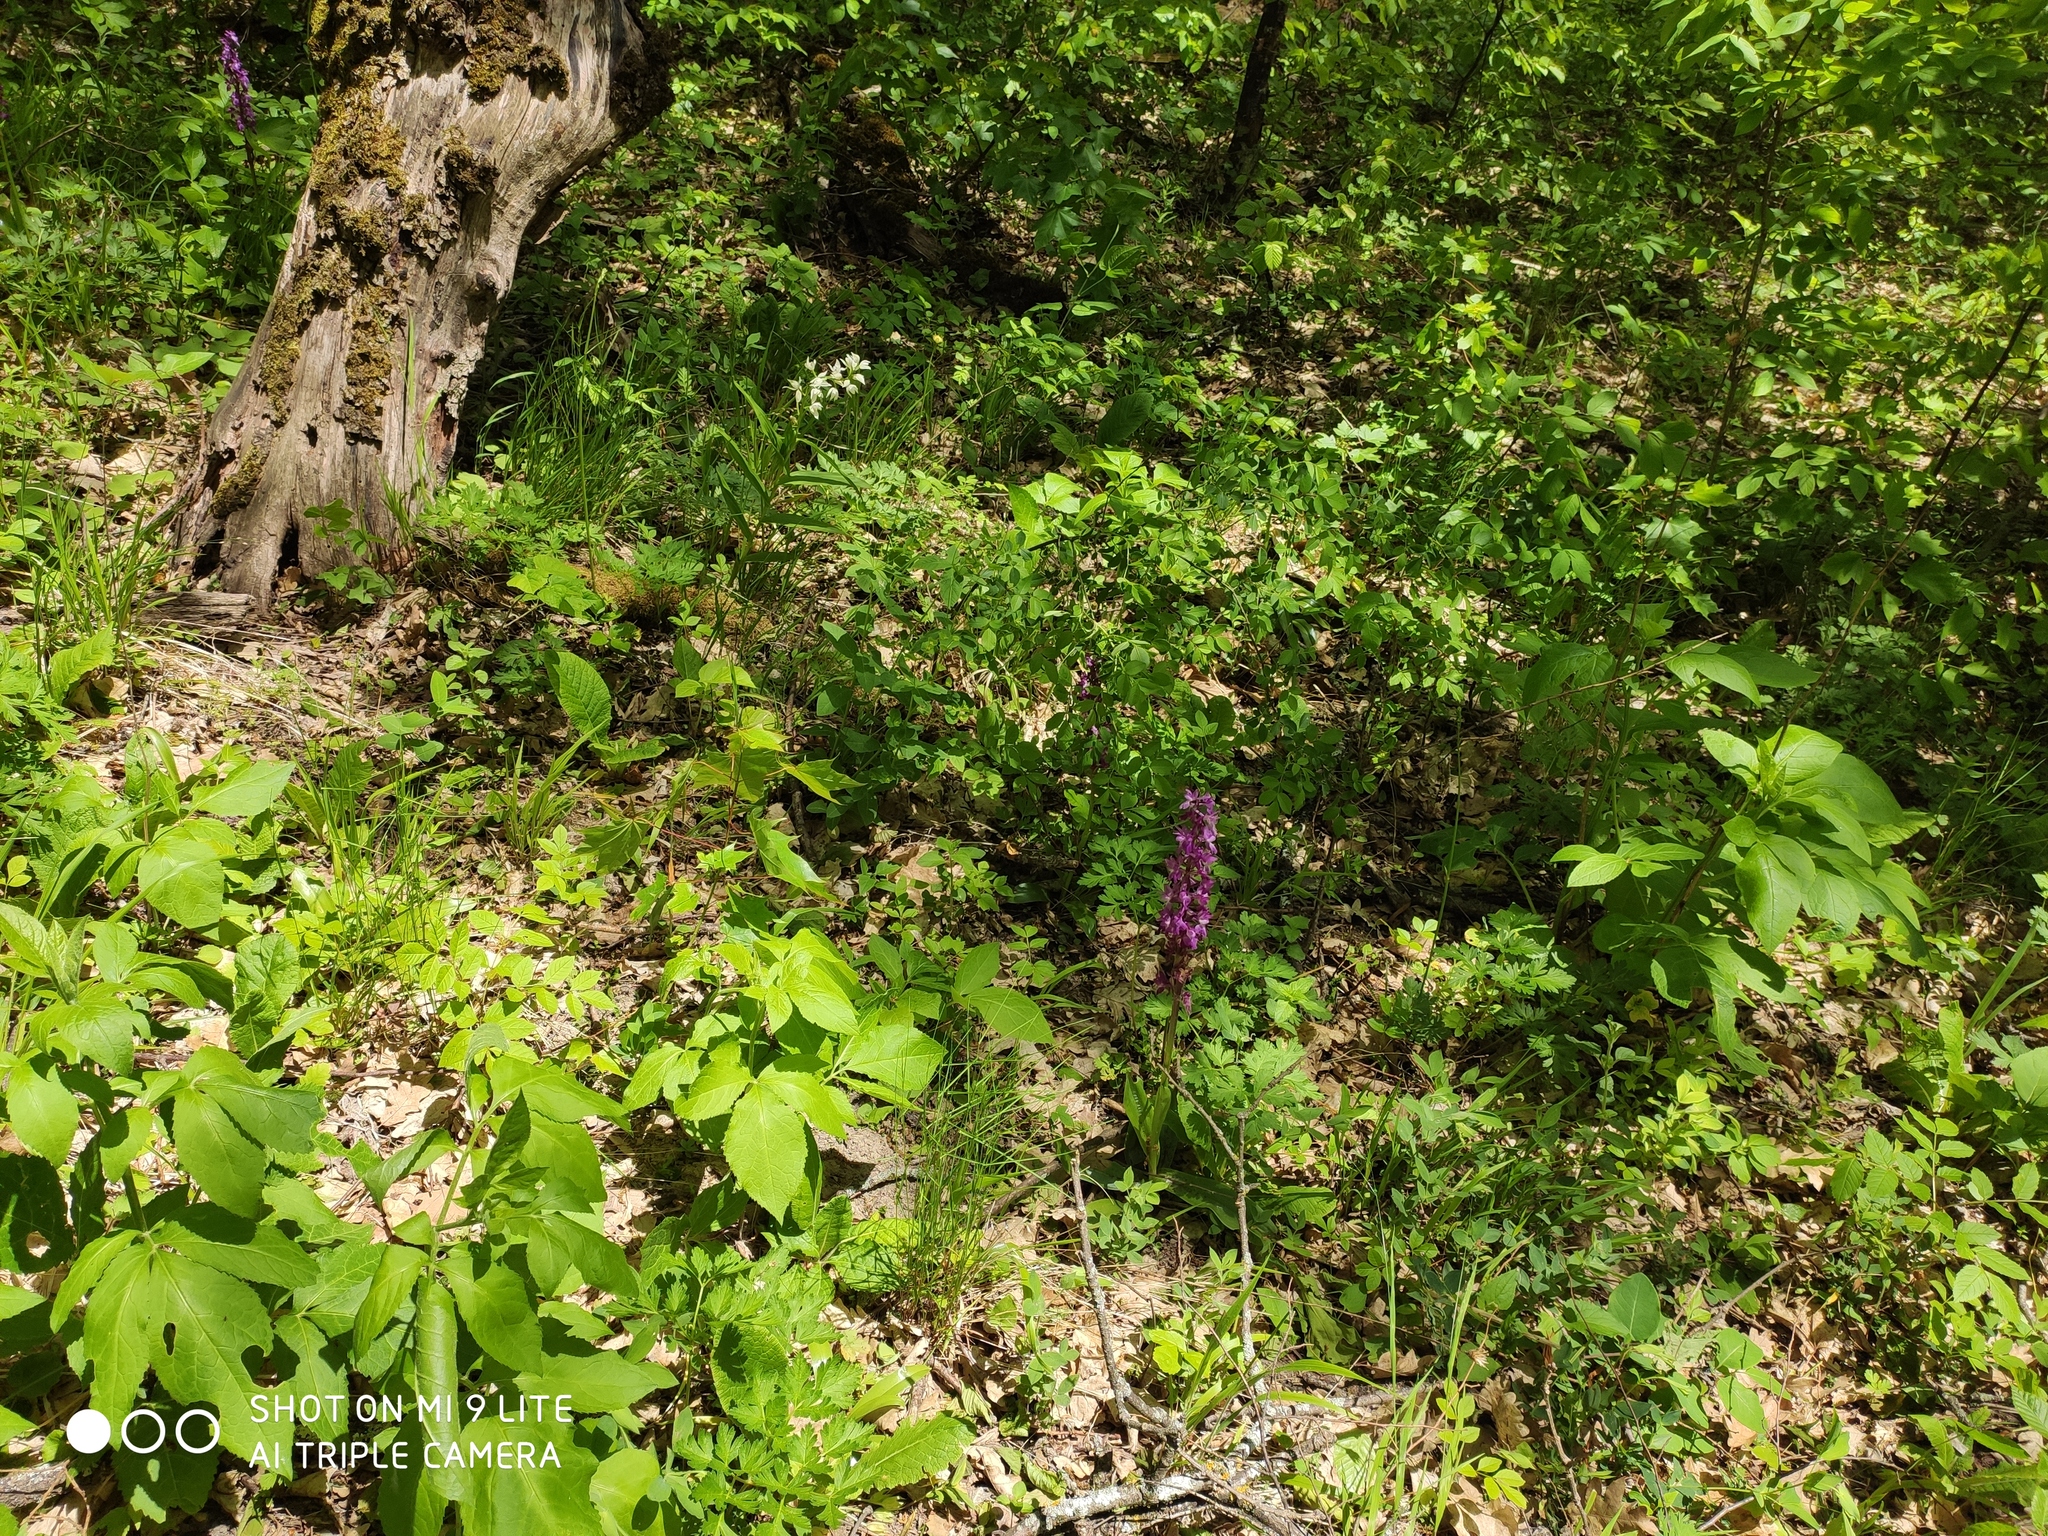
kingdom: Plantae
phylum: Tracheophyta
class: Liliopsida
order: Asparagales
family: Orchidaceae
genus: Orchis
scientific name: Orchis mascula
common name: Early-purple orchid
